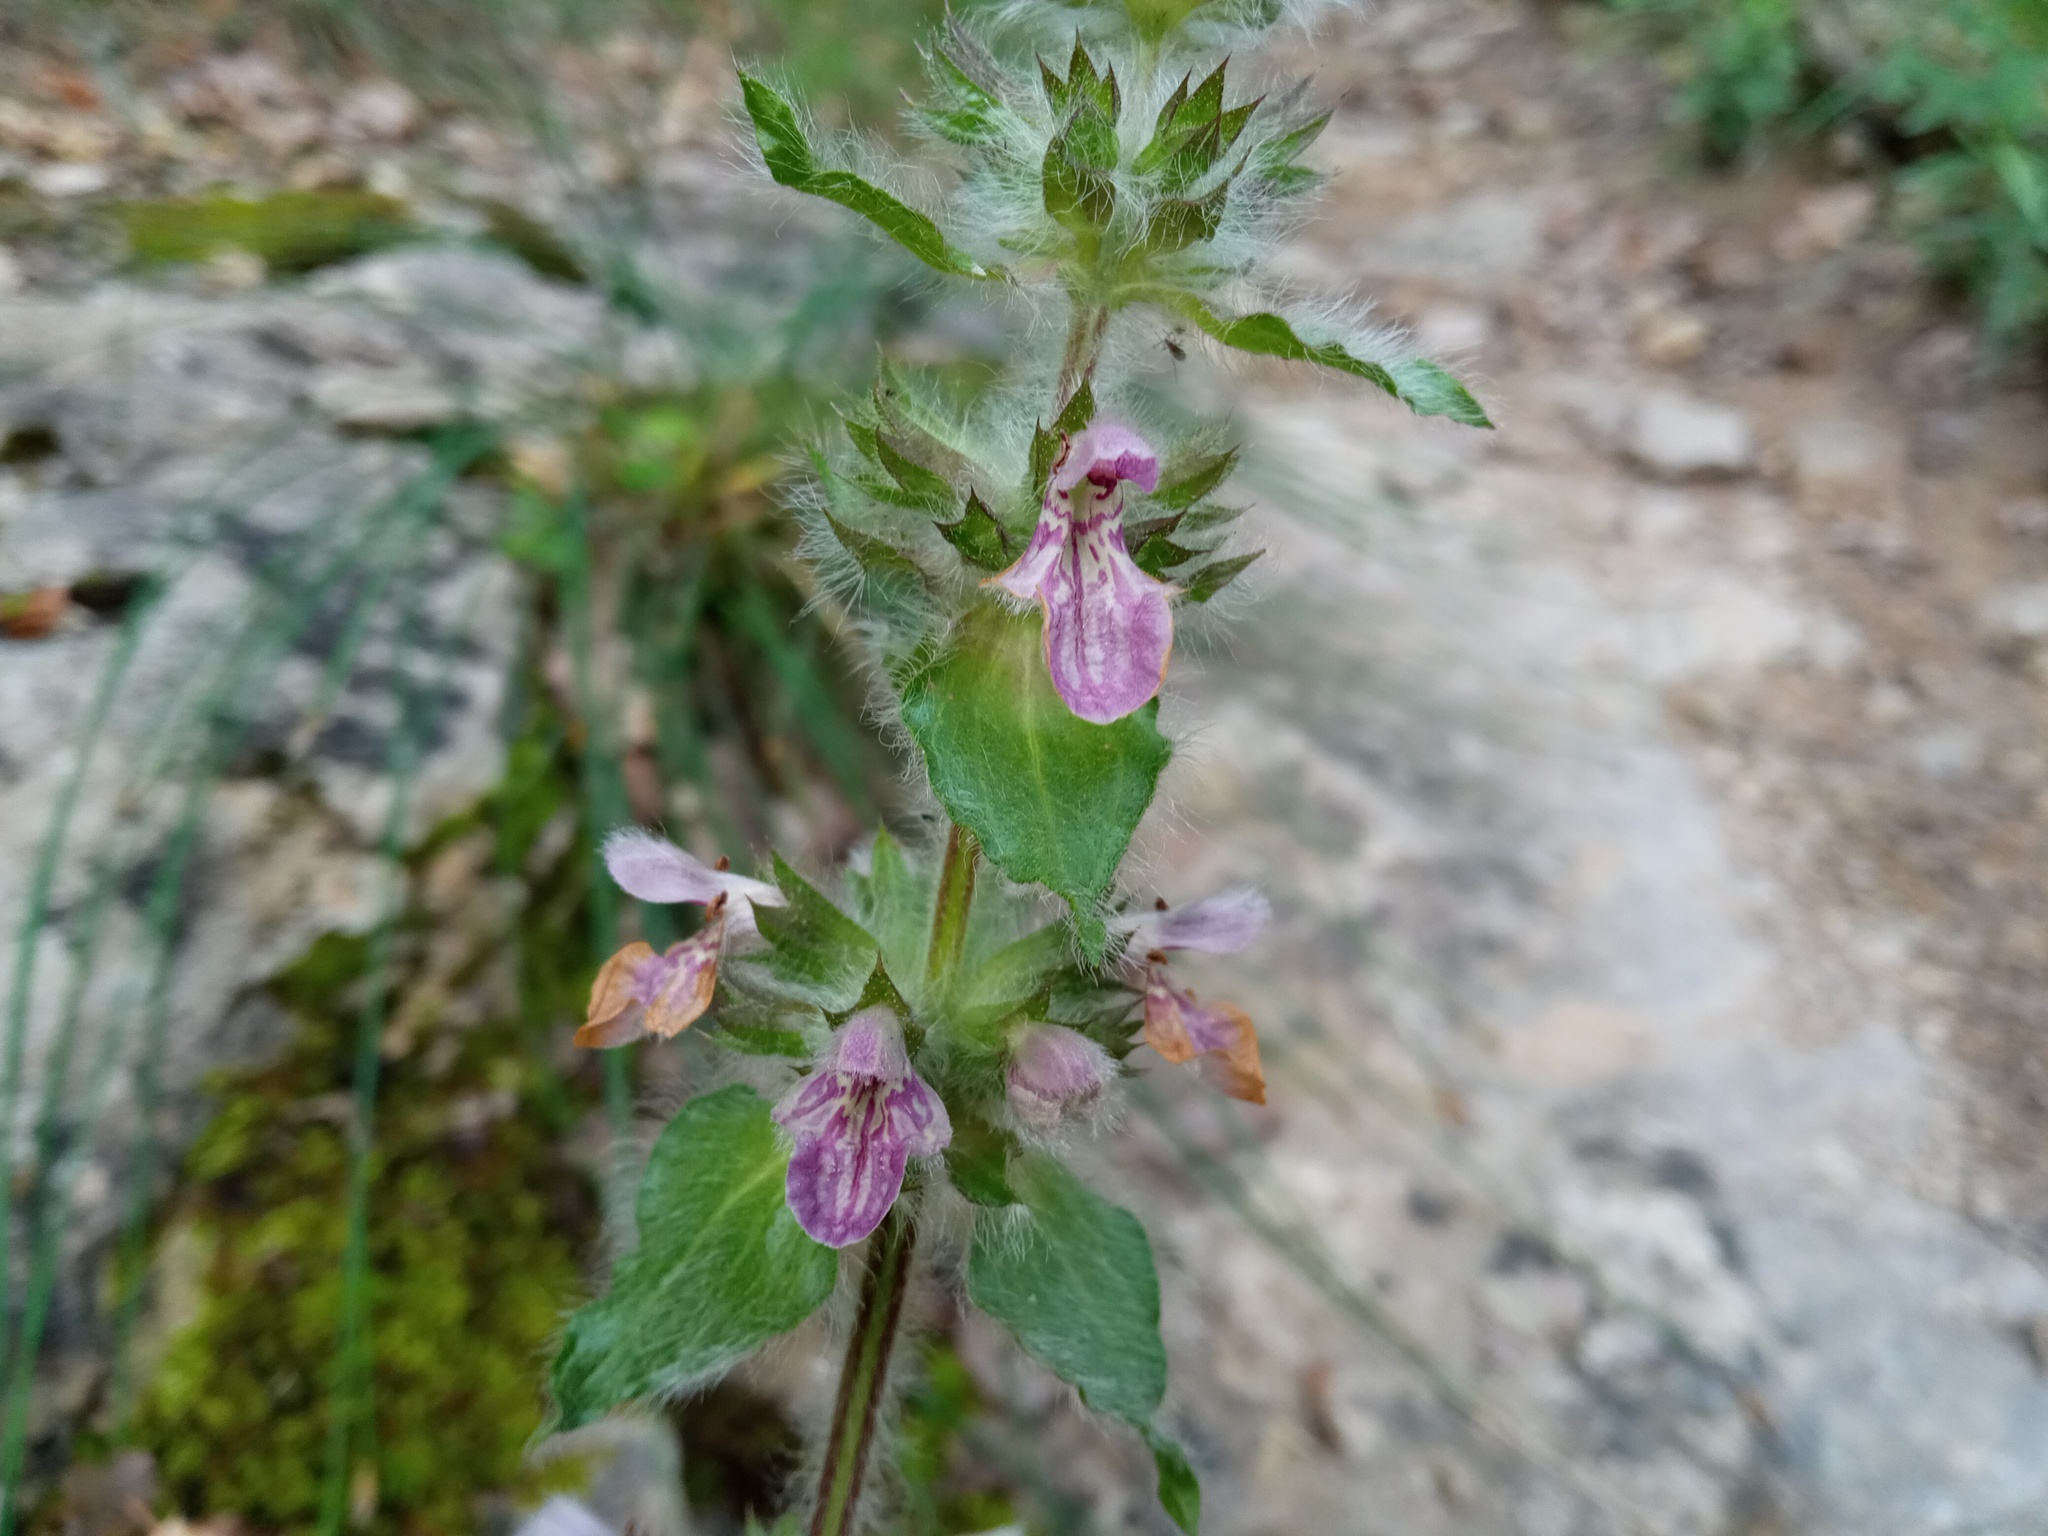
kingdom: Plantae
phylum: Tracheophyta
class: Magnoliopsida
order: Lamiales
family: Lamiaceae
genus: Stachys
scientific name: Stachys heraclea
